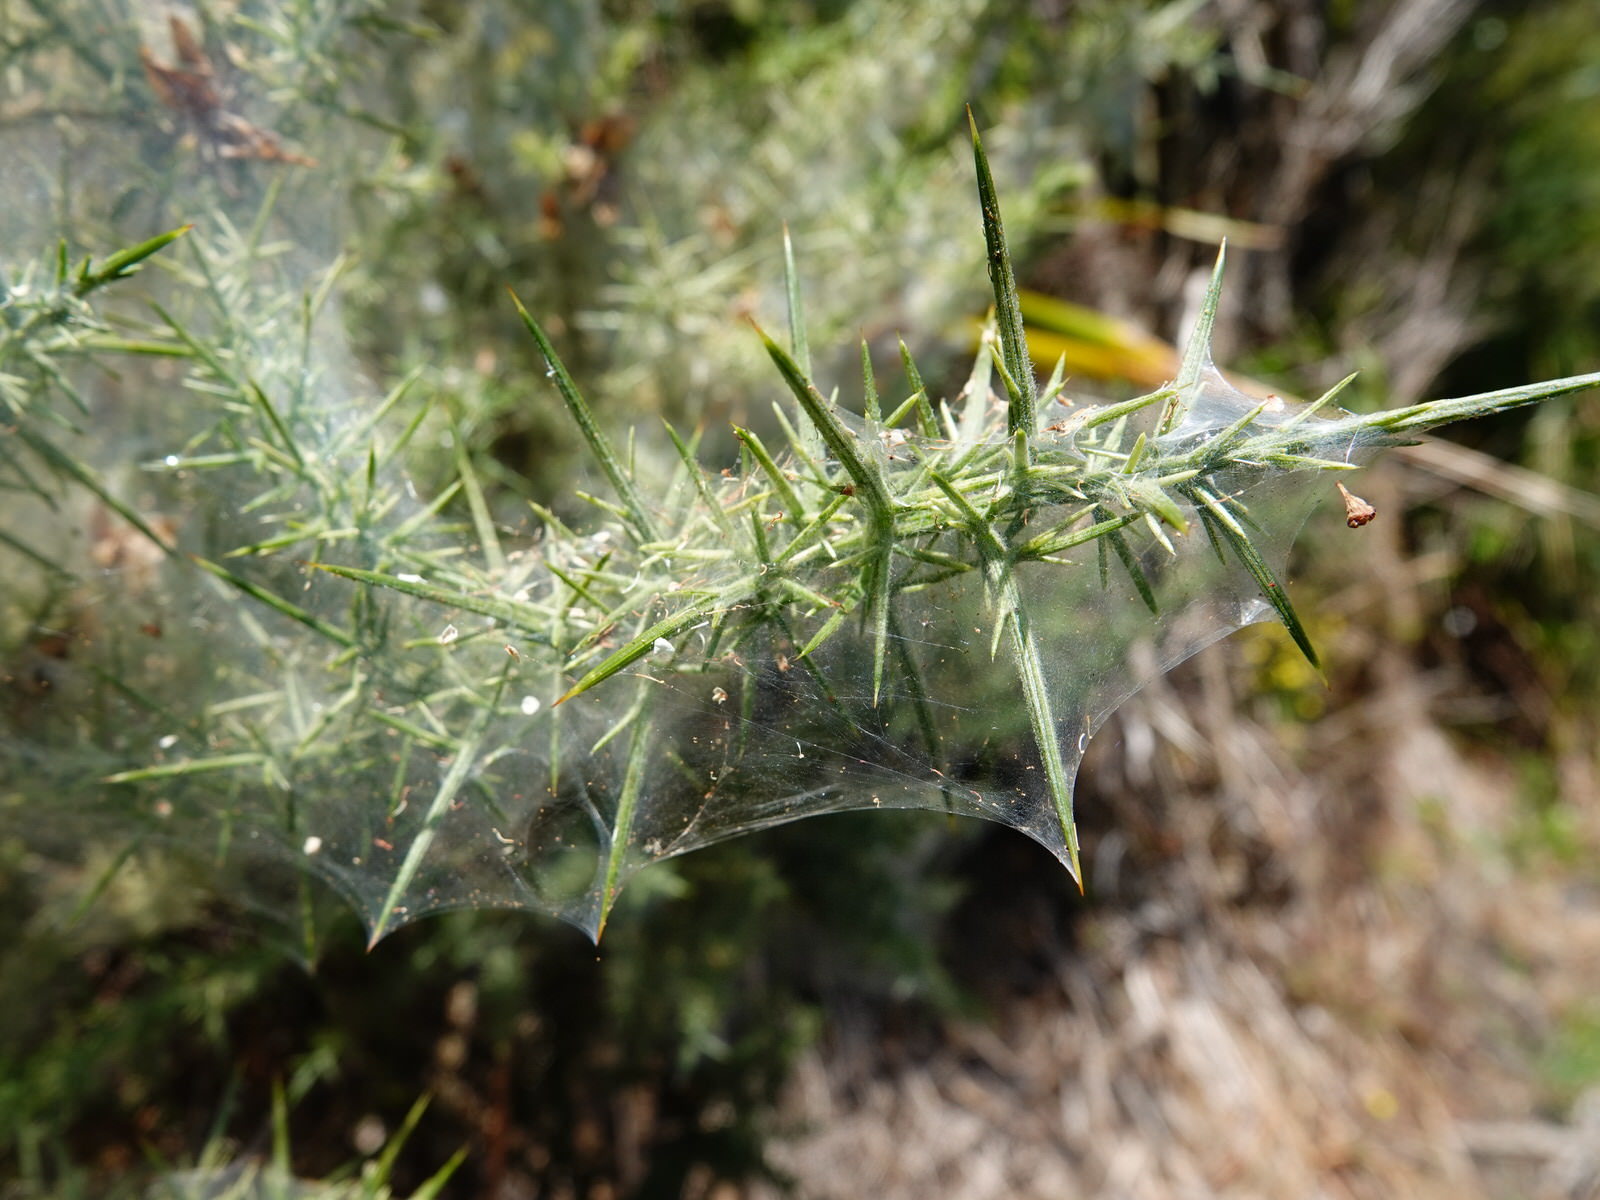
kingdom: Animalia
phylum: Arthropoda
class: Arachnida
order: Trombidiformes
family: Tetranychidae
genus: Tetranychus
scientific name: Tetranychus lintearius
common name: Gorse spider mite
